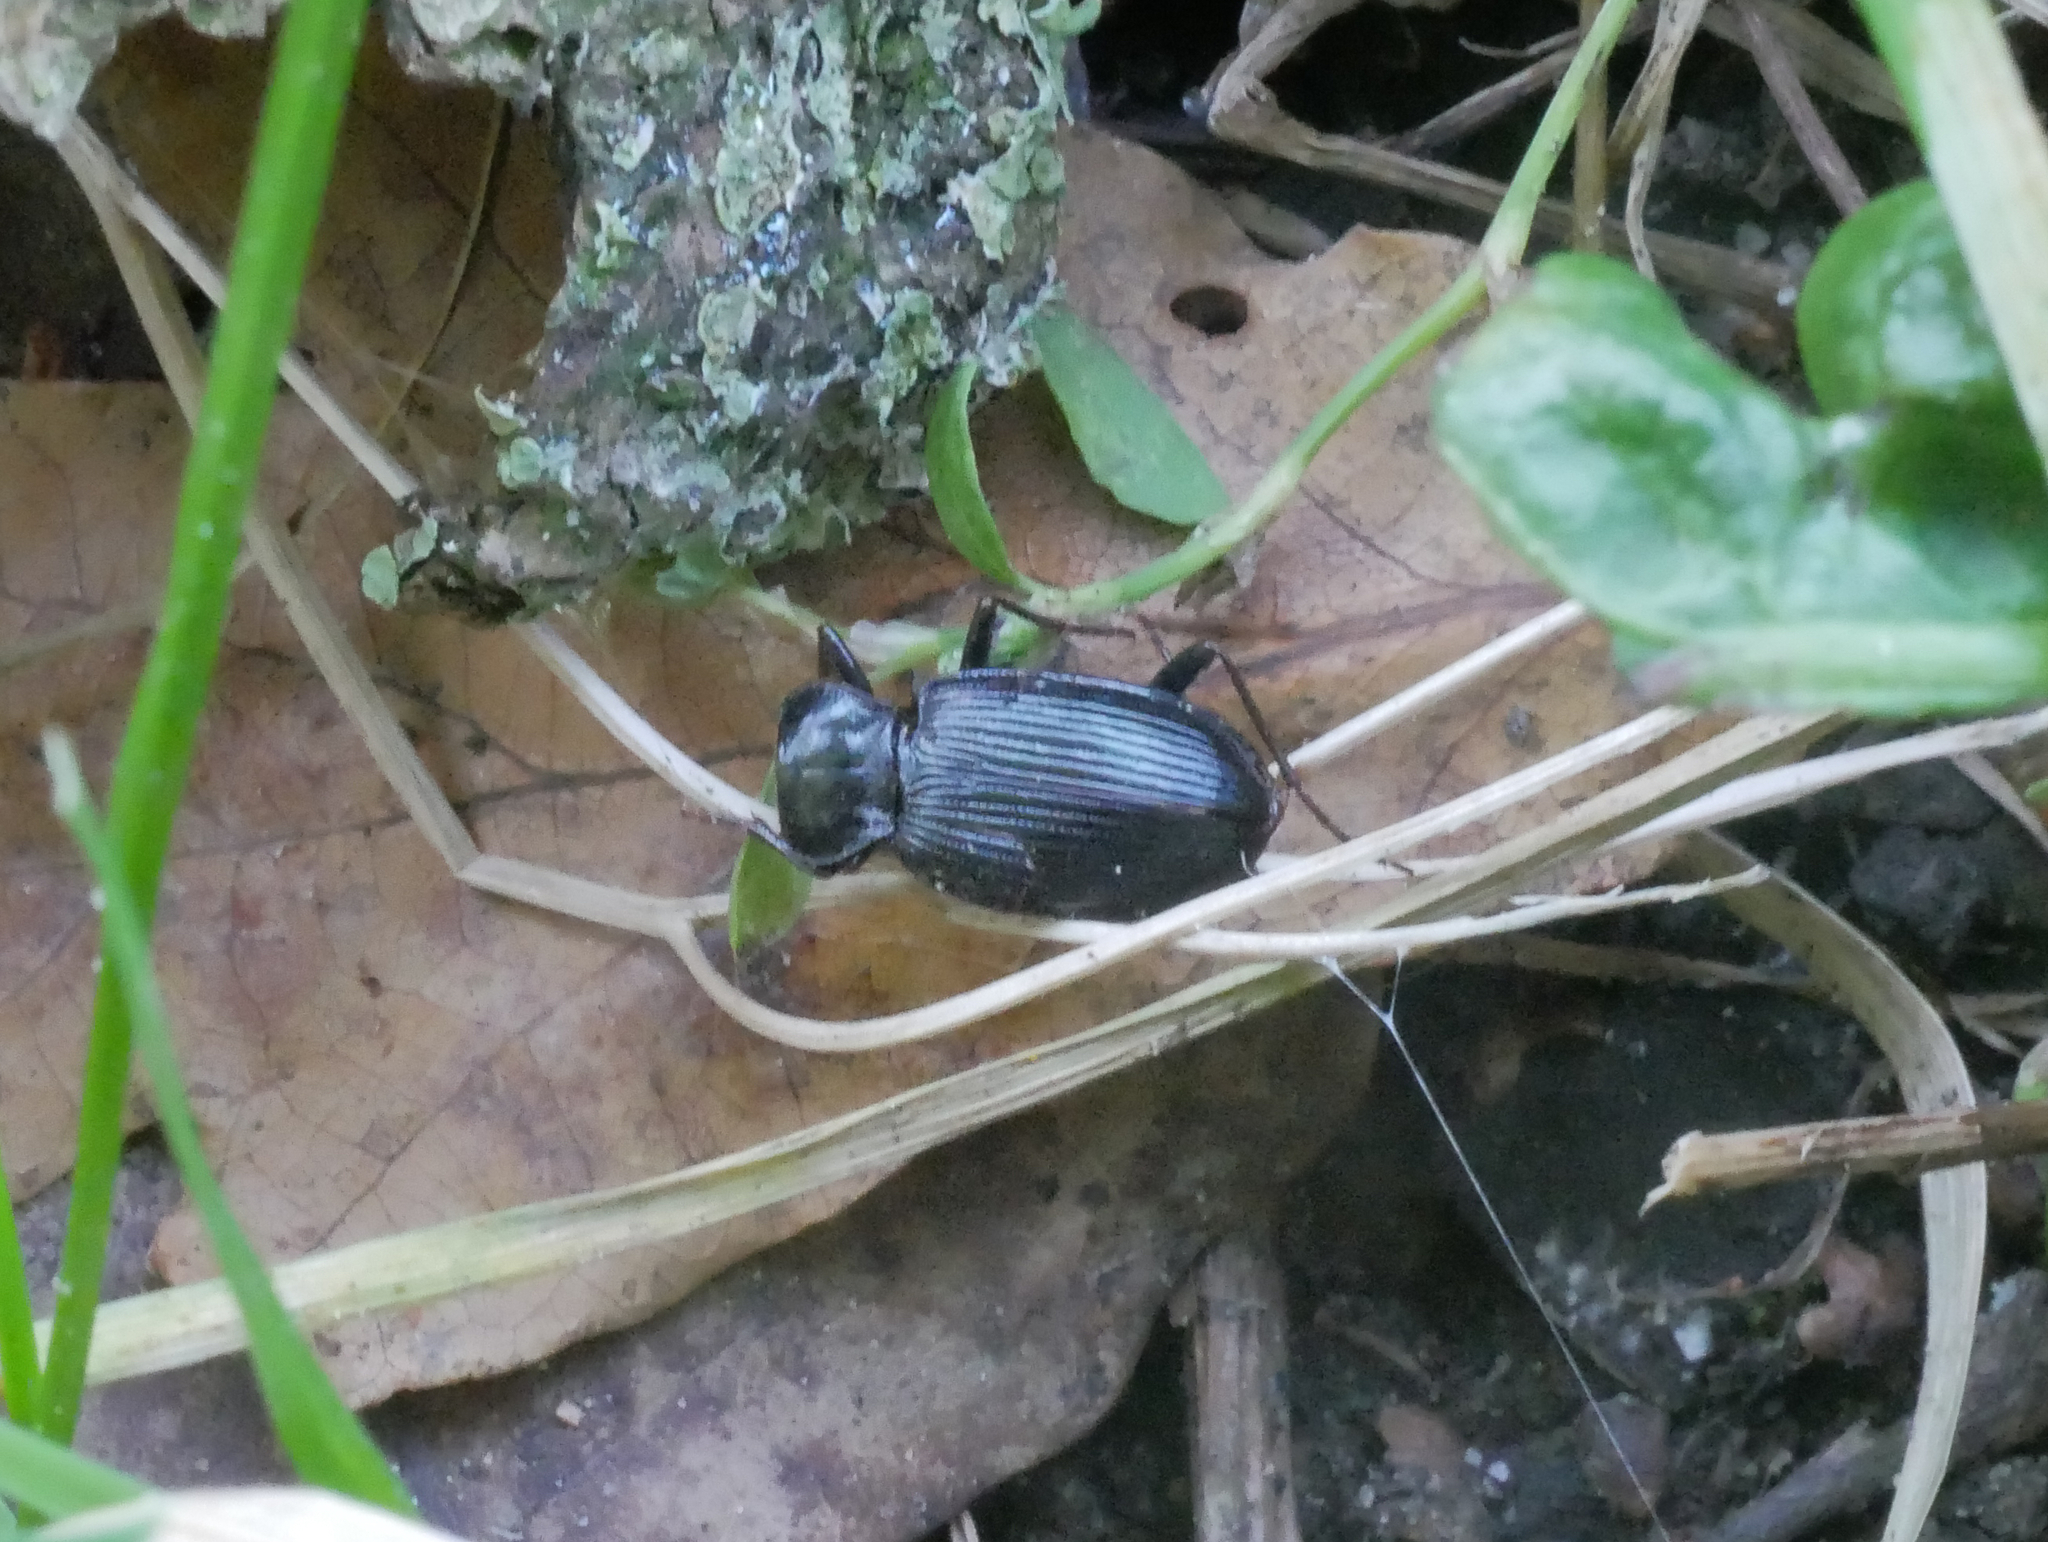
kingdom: Animalia
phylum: Arthropoda
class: Insecta
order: Coleoptera
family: Carabidae
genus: Nebria
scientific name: Nebria
